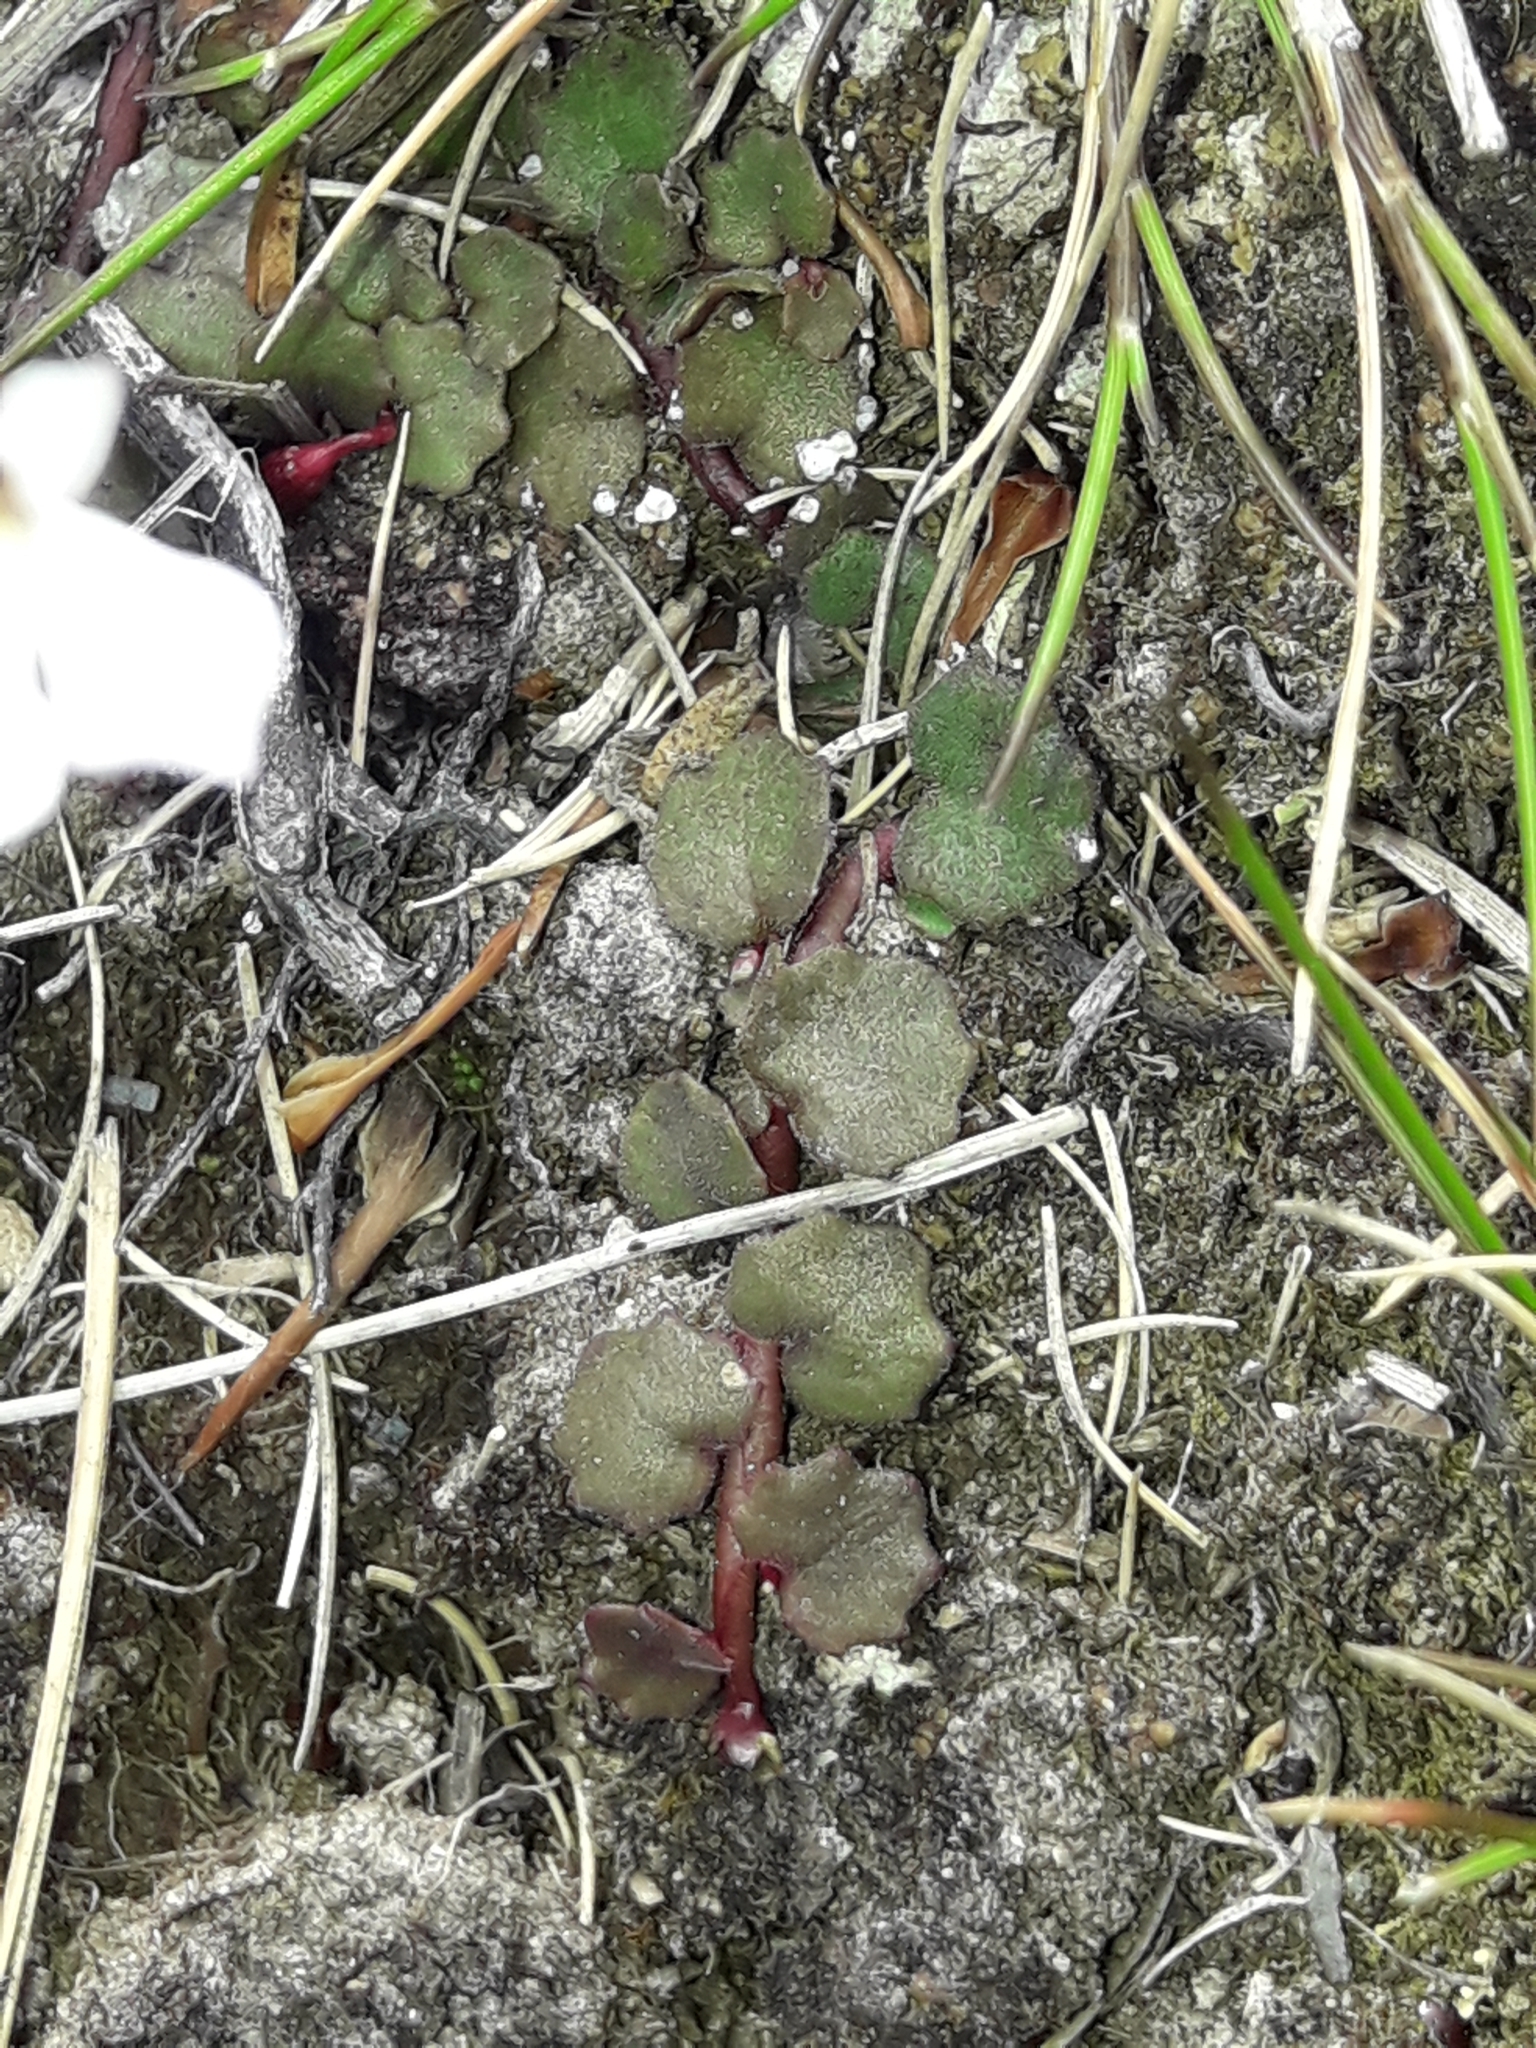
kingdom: Plantae
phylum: Tracheophyta
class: Magnoliopsida
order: Asterales
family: Campanulaceae
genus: Lobelia
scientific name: Lobelia angulata
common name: Lawn lobelia
